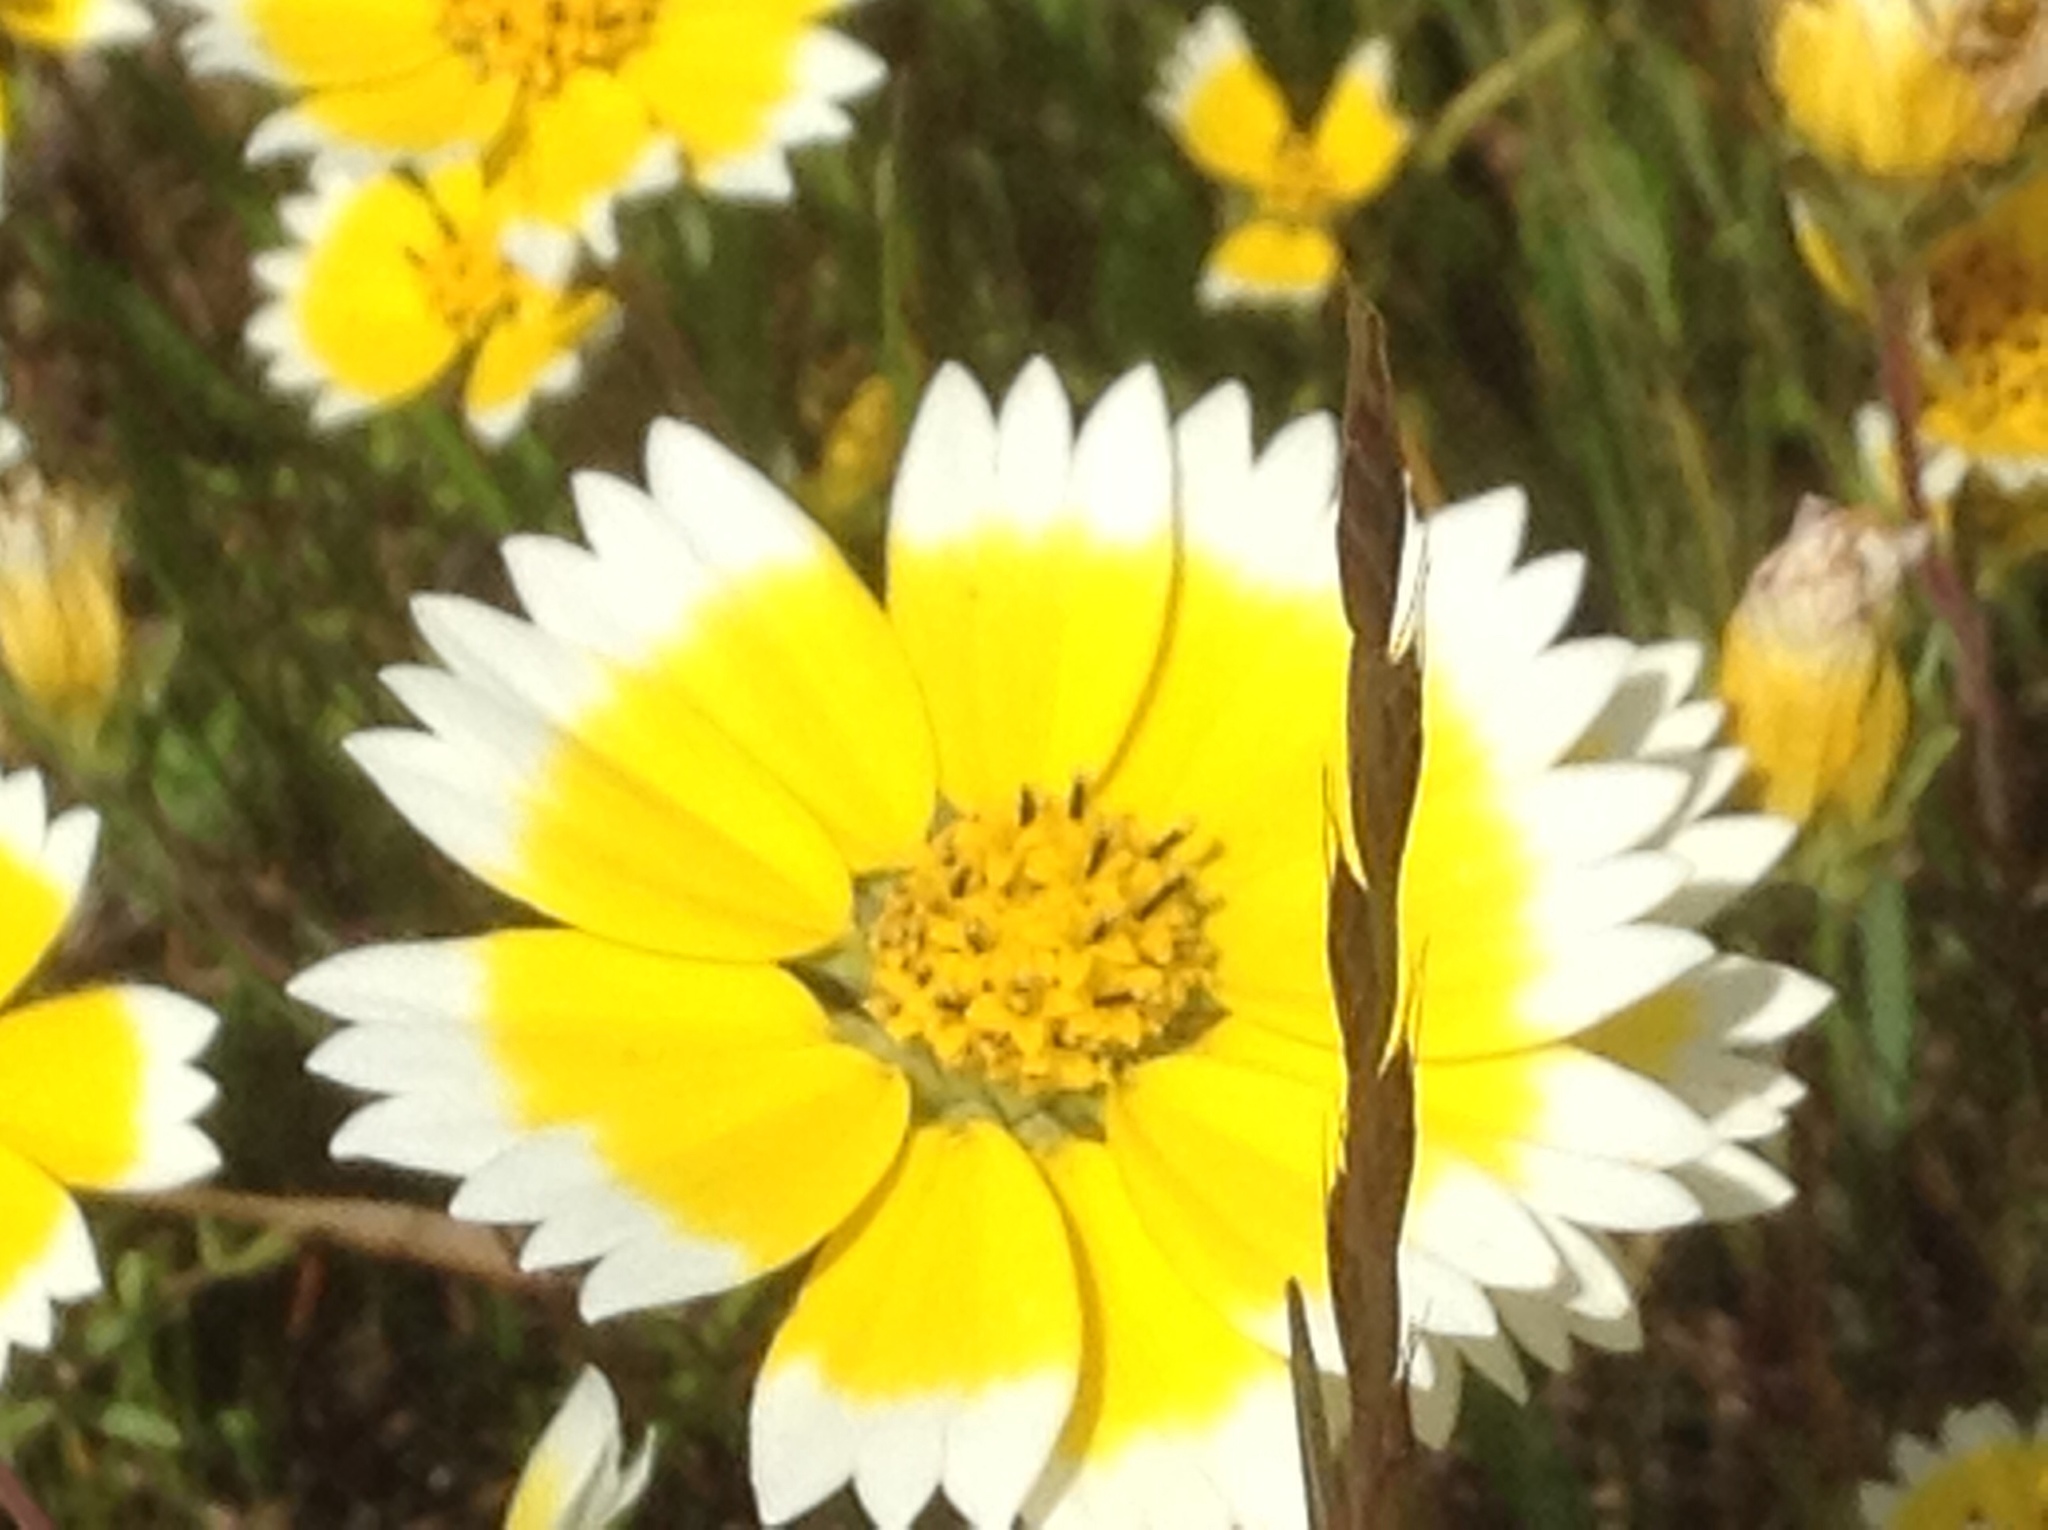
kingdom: Plantae
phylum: Tracheophyta
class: Magnoliopsida
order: Asterales
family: Asteraceae
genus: Layia
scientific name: Layia fremontii
